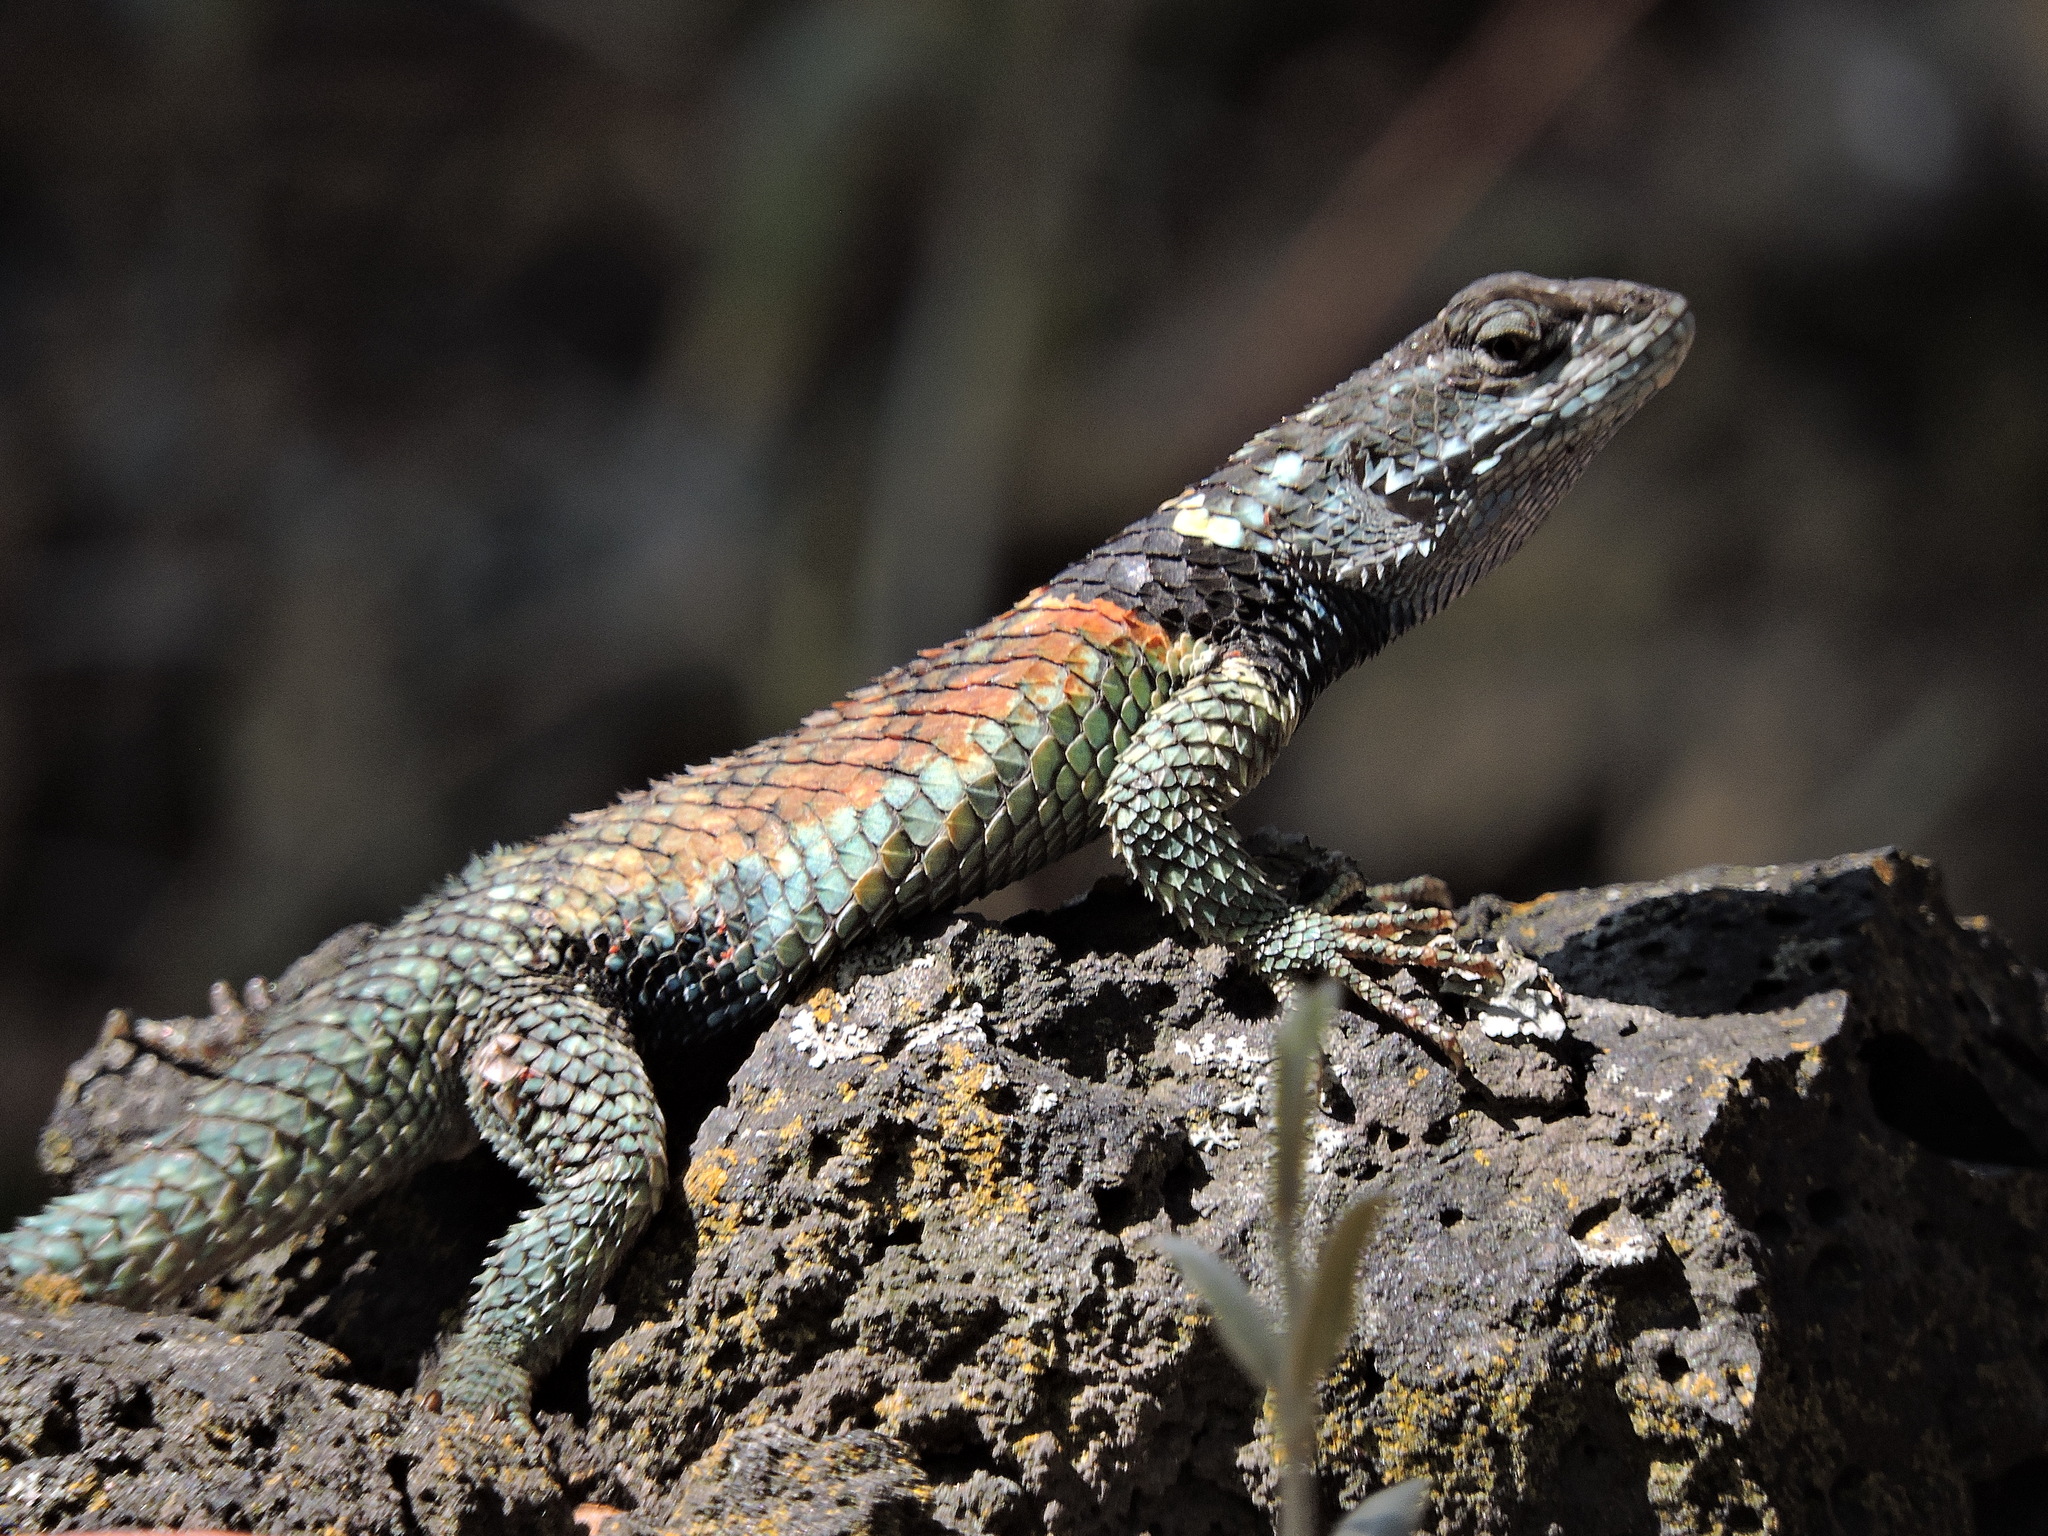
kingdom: Animalia
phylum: Chordata
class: Squamata
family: Phrynosomatidae
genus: Sceloporus
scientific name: Sceloporus torquatus
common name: Central plateau torquate lizard [melanogaster]
